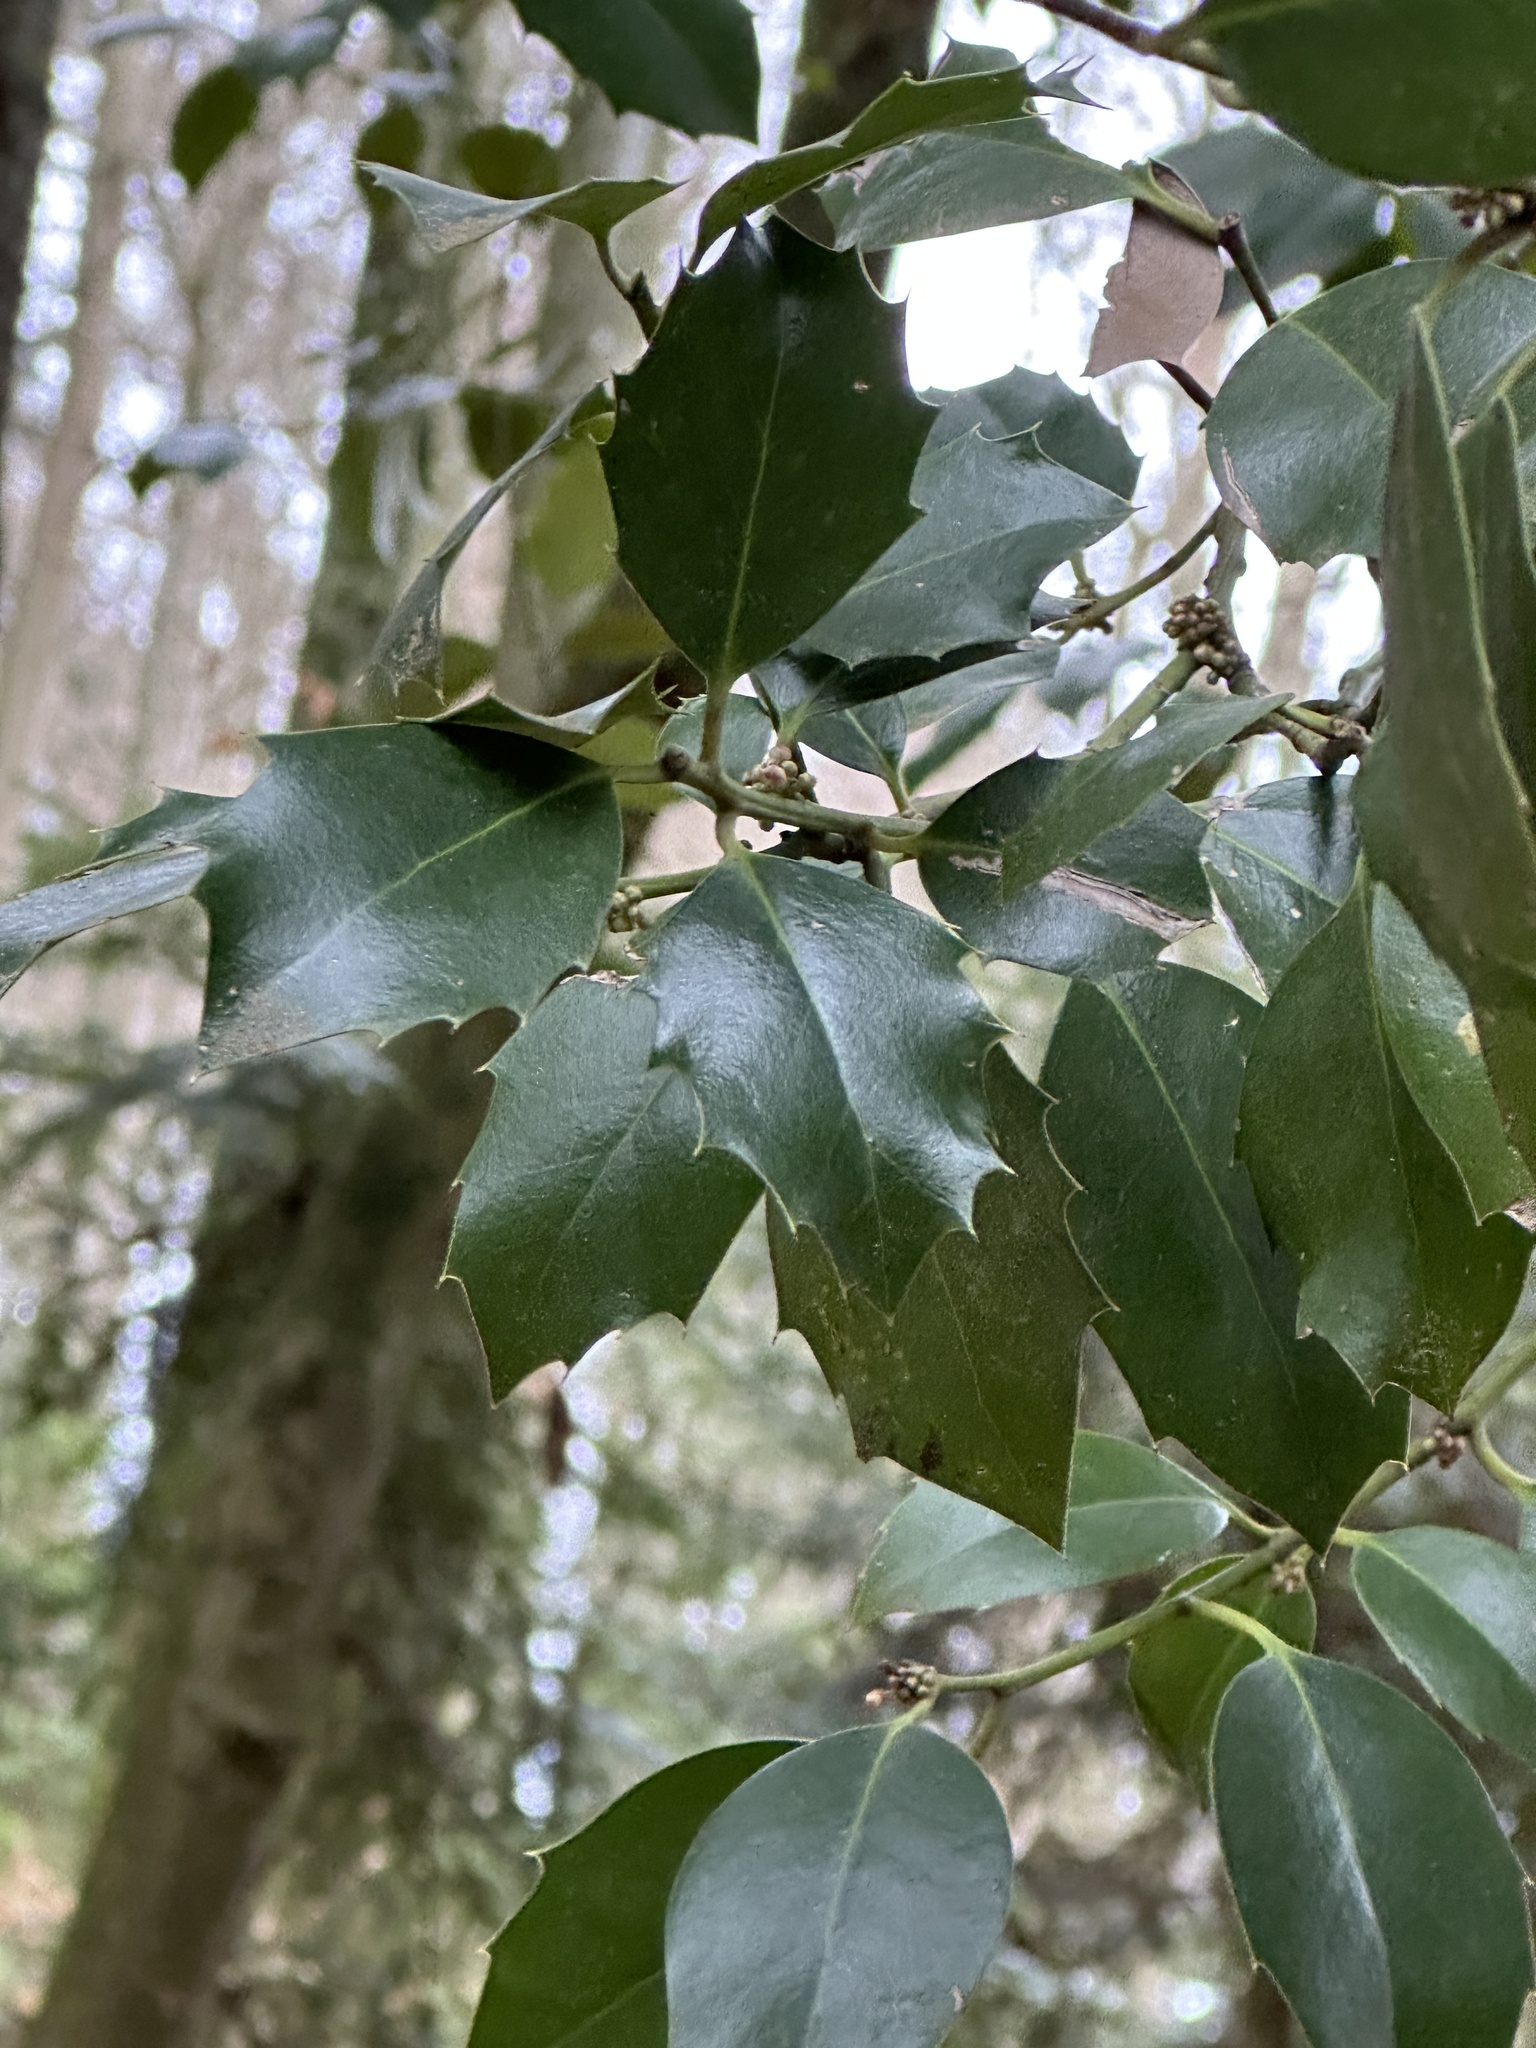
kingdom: Plantae
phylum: Tracheophyta
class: Magnoliopsida
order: Aquifoliales
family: Aquifoliaceae
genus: Ilex
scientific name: Ilex aquifolium
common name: English holly
